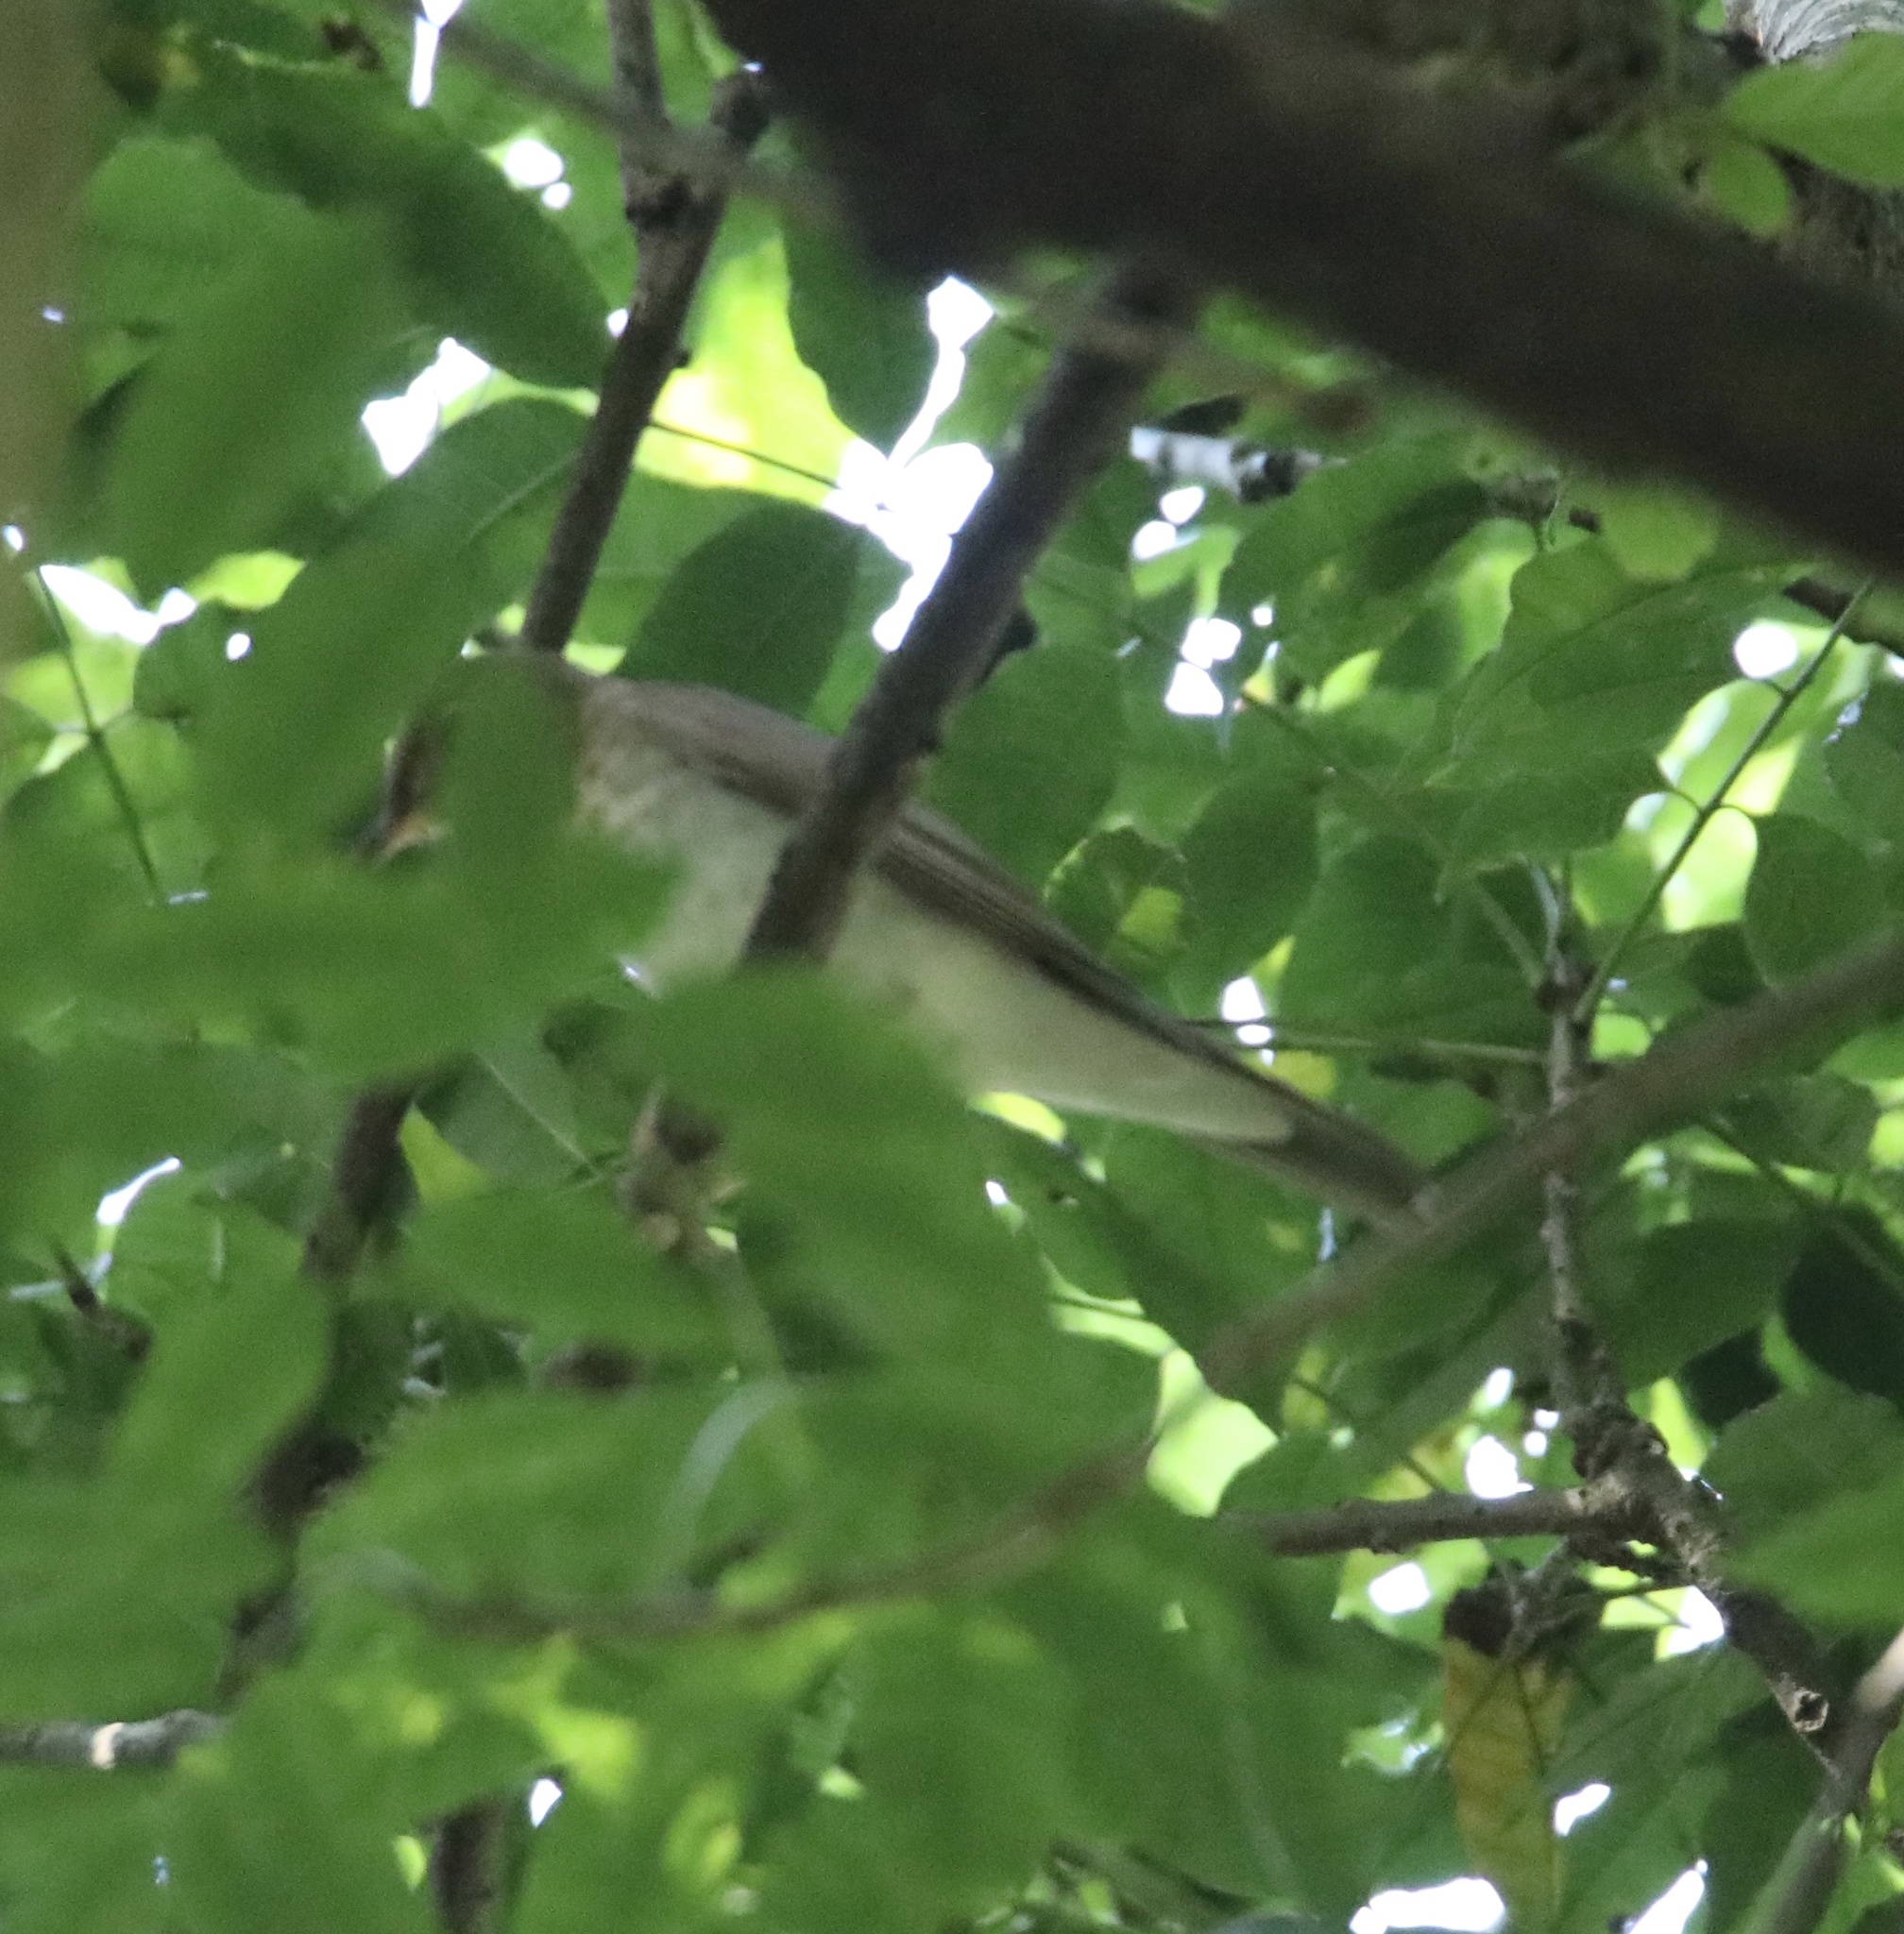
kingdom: Animalia
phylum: Chordata
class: Aves
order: Passeriformes
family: Turdidae
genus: Catharus
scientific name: Catharus minimus
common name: Grey-cheeked thrush
